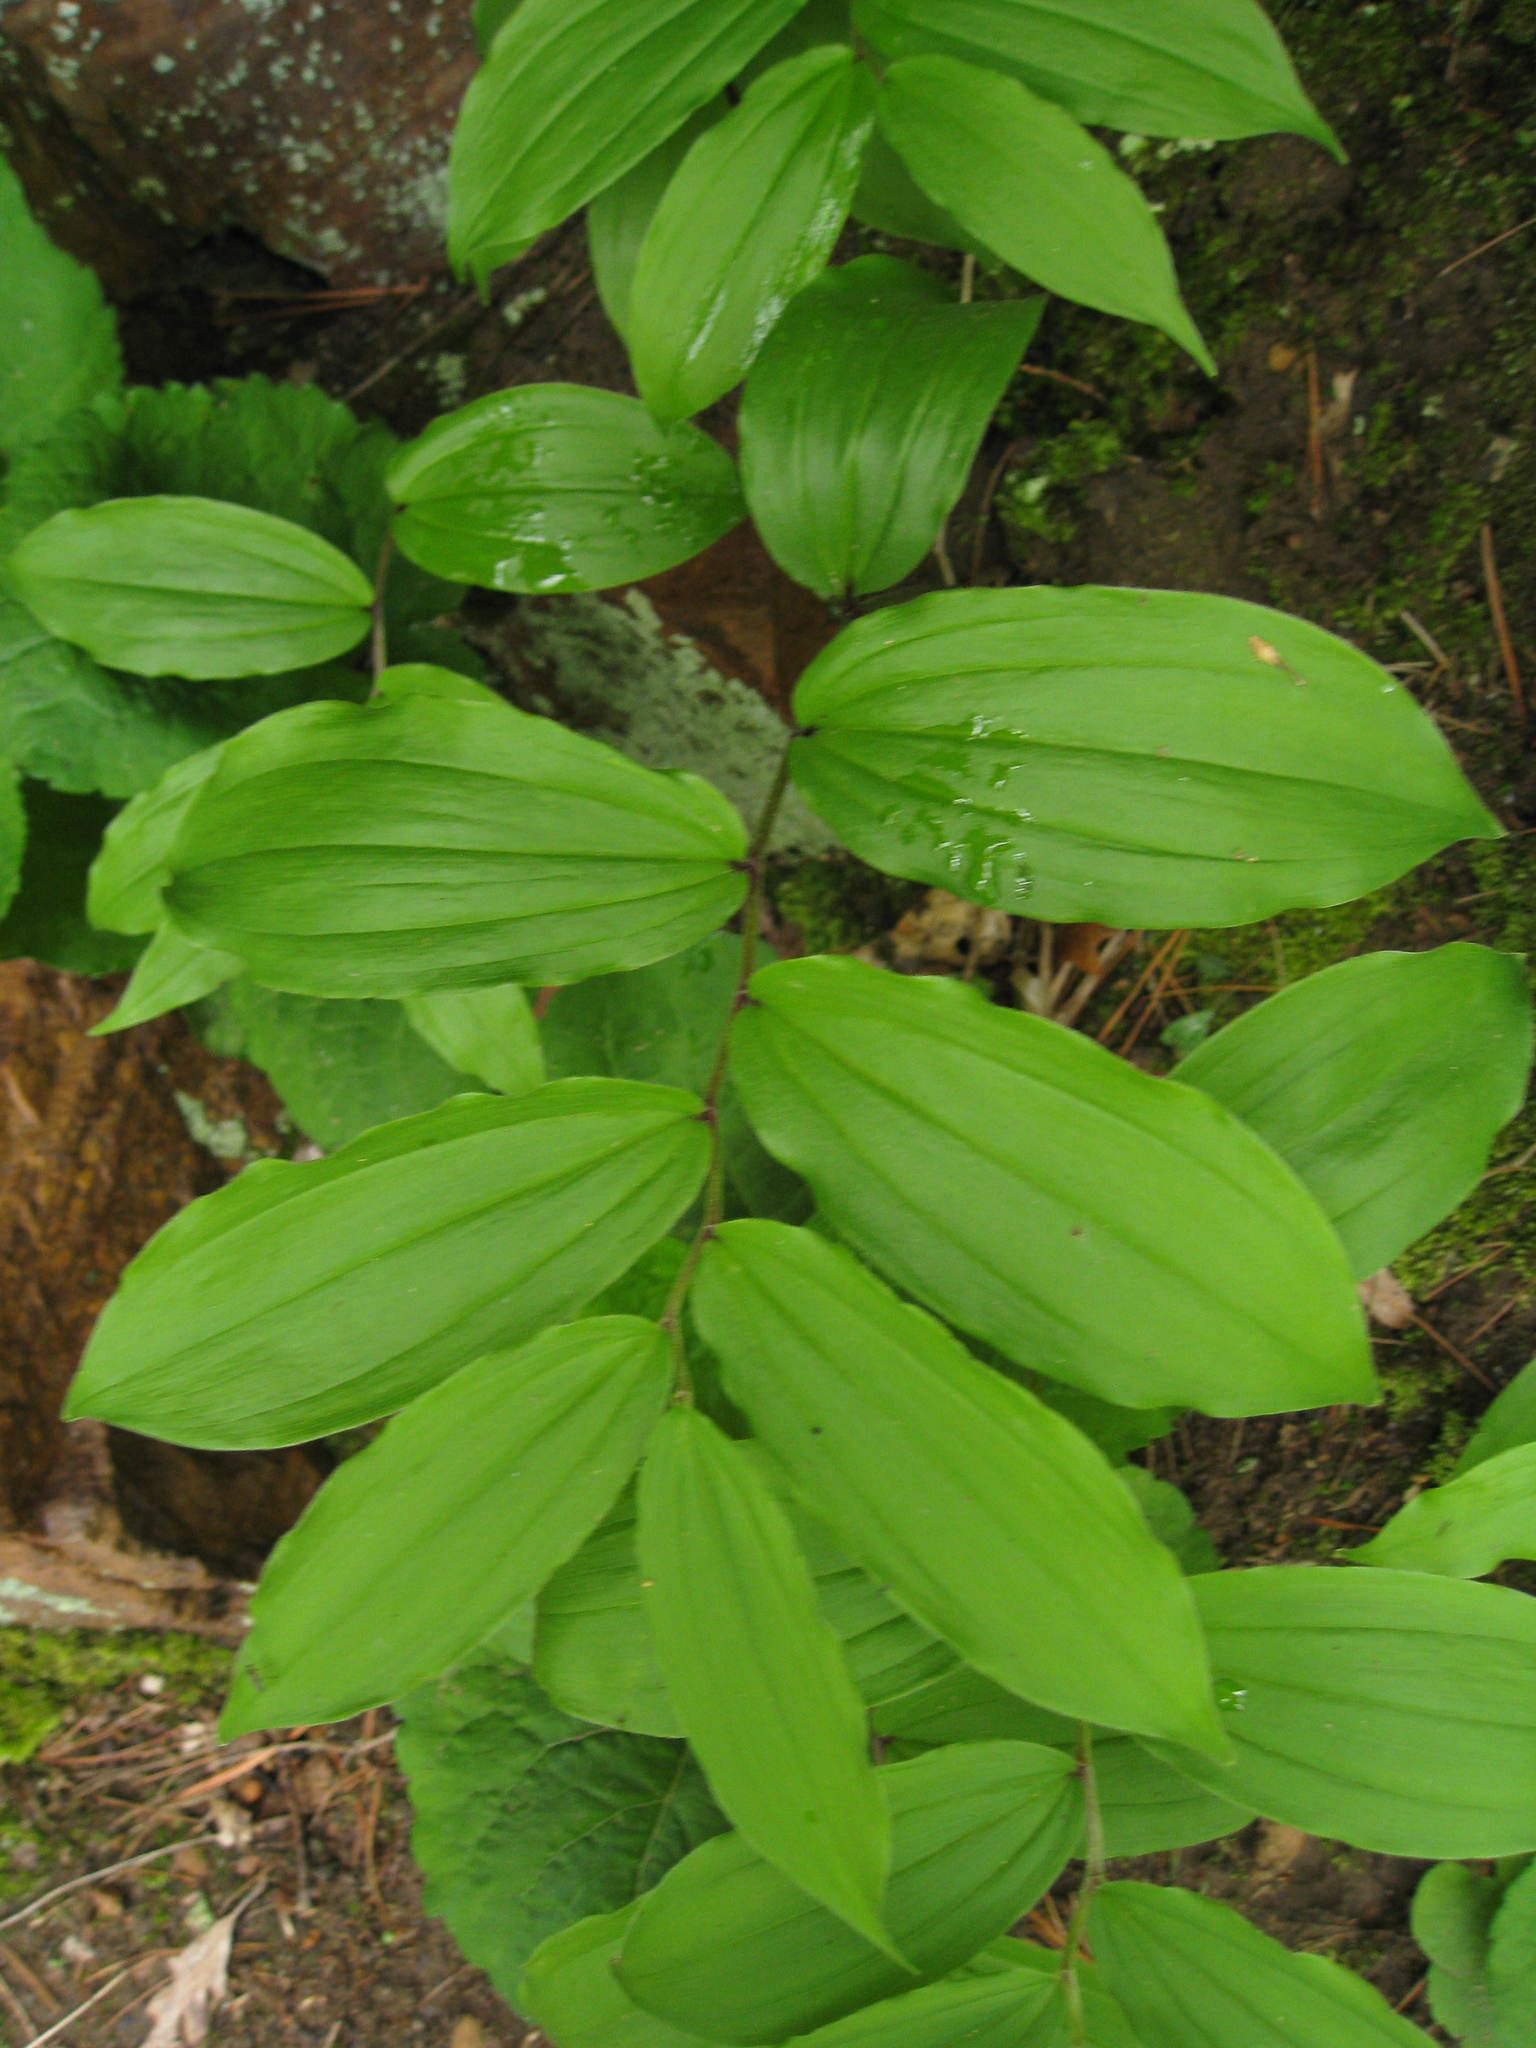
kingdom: Plantae
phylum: Tracheophyta
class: Liliopsida
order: Asparagales
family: Asparagaceae
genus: Maianthemum
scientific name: Maianthemum racemosum
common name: False spikenard
